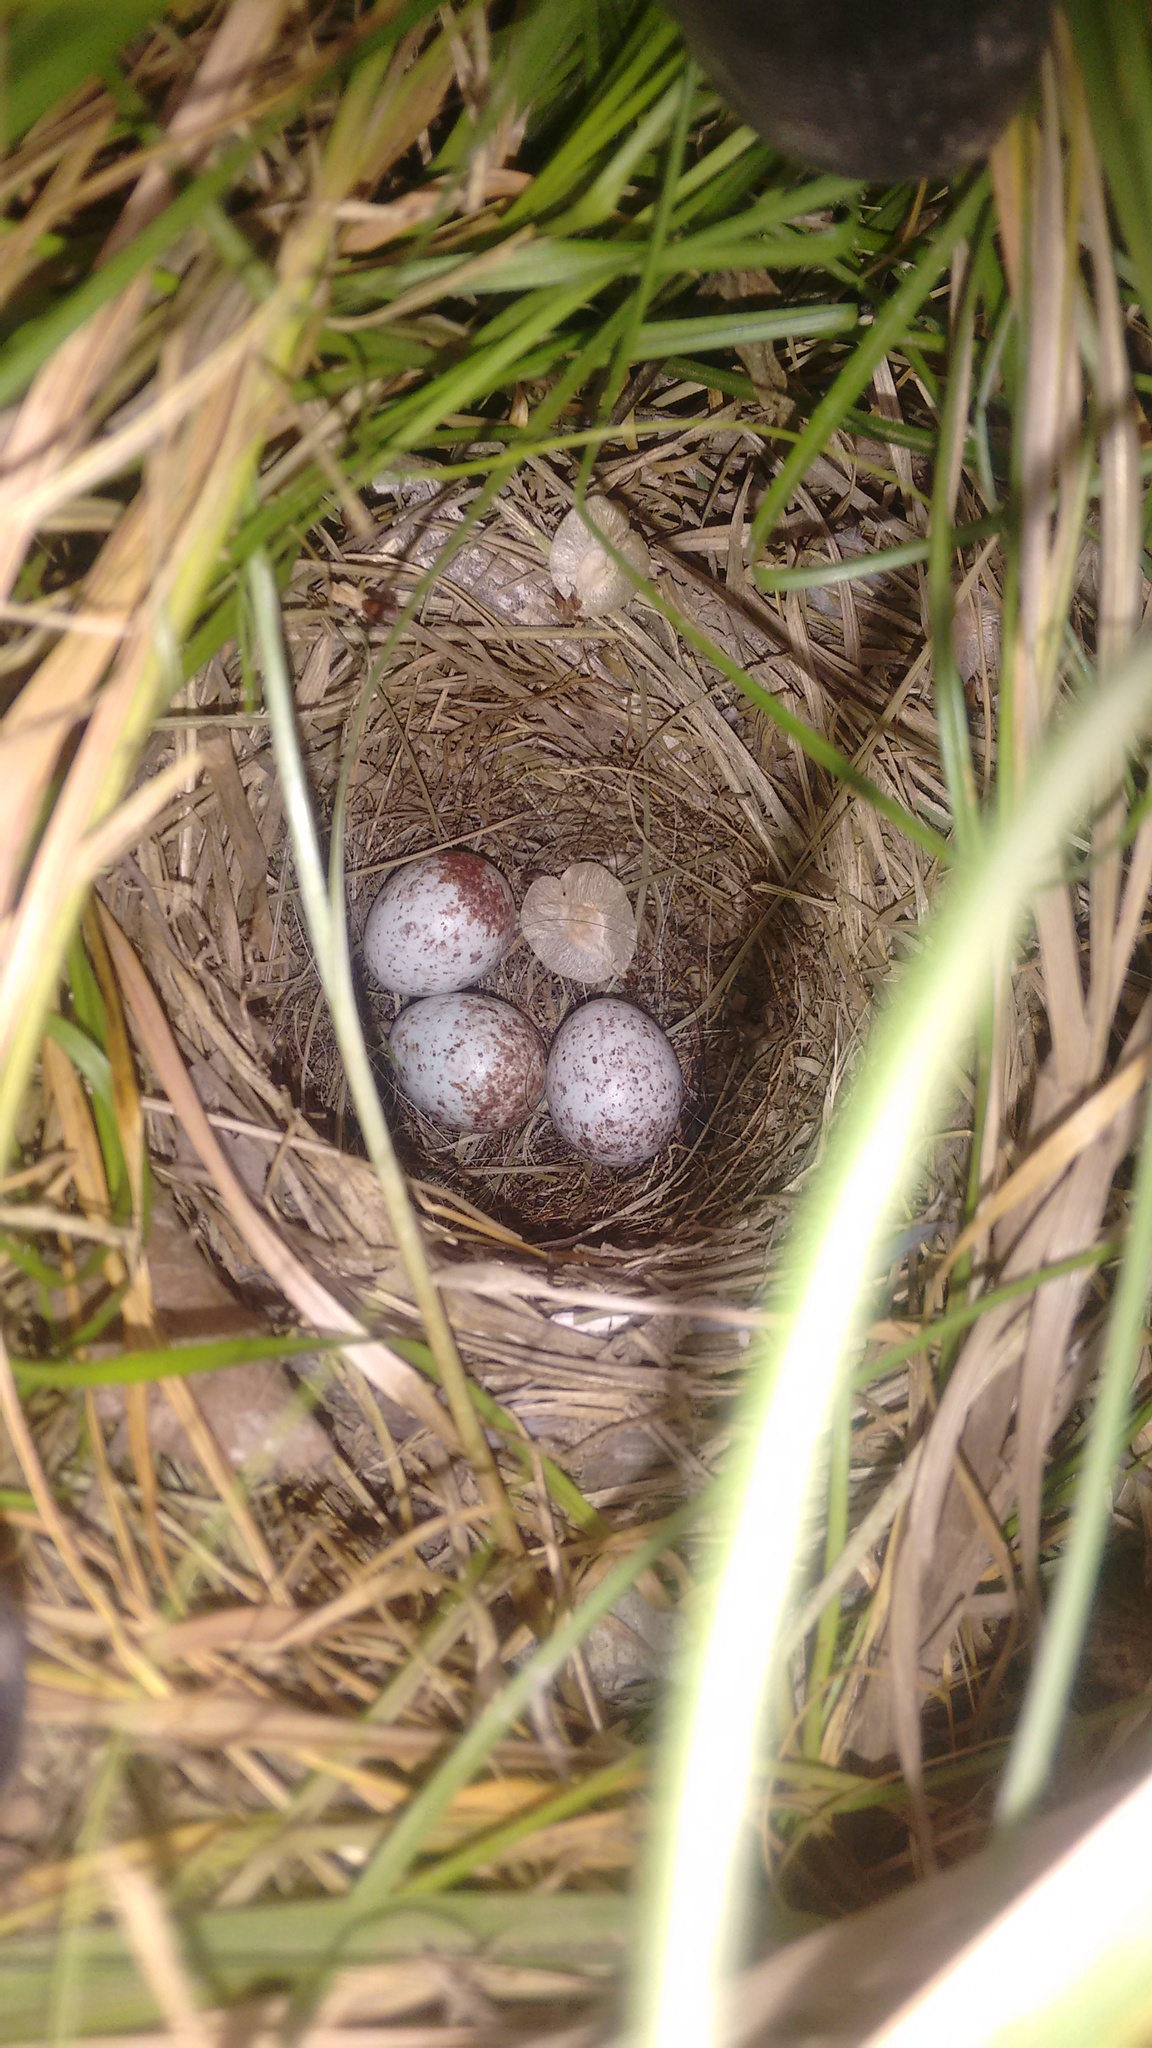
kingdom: Animalia
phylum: Chordata
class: Aves
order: Passeriformes
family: Passerellidae
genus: Zonotrichia
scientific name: Zonotrichia capensis
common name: Rufous-collared sparrow
